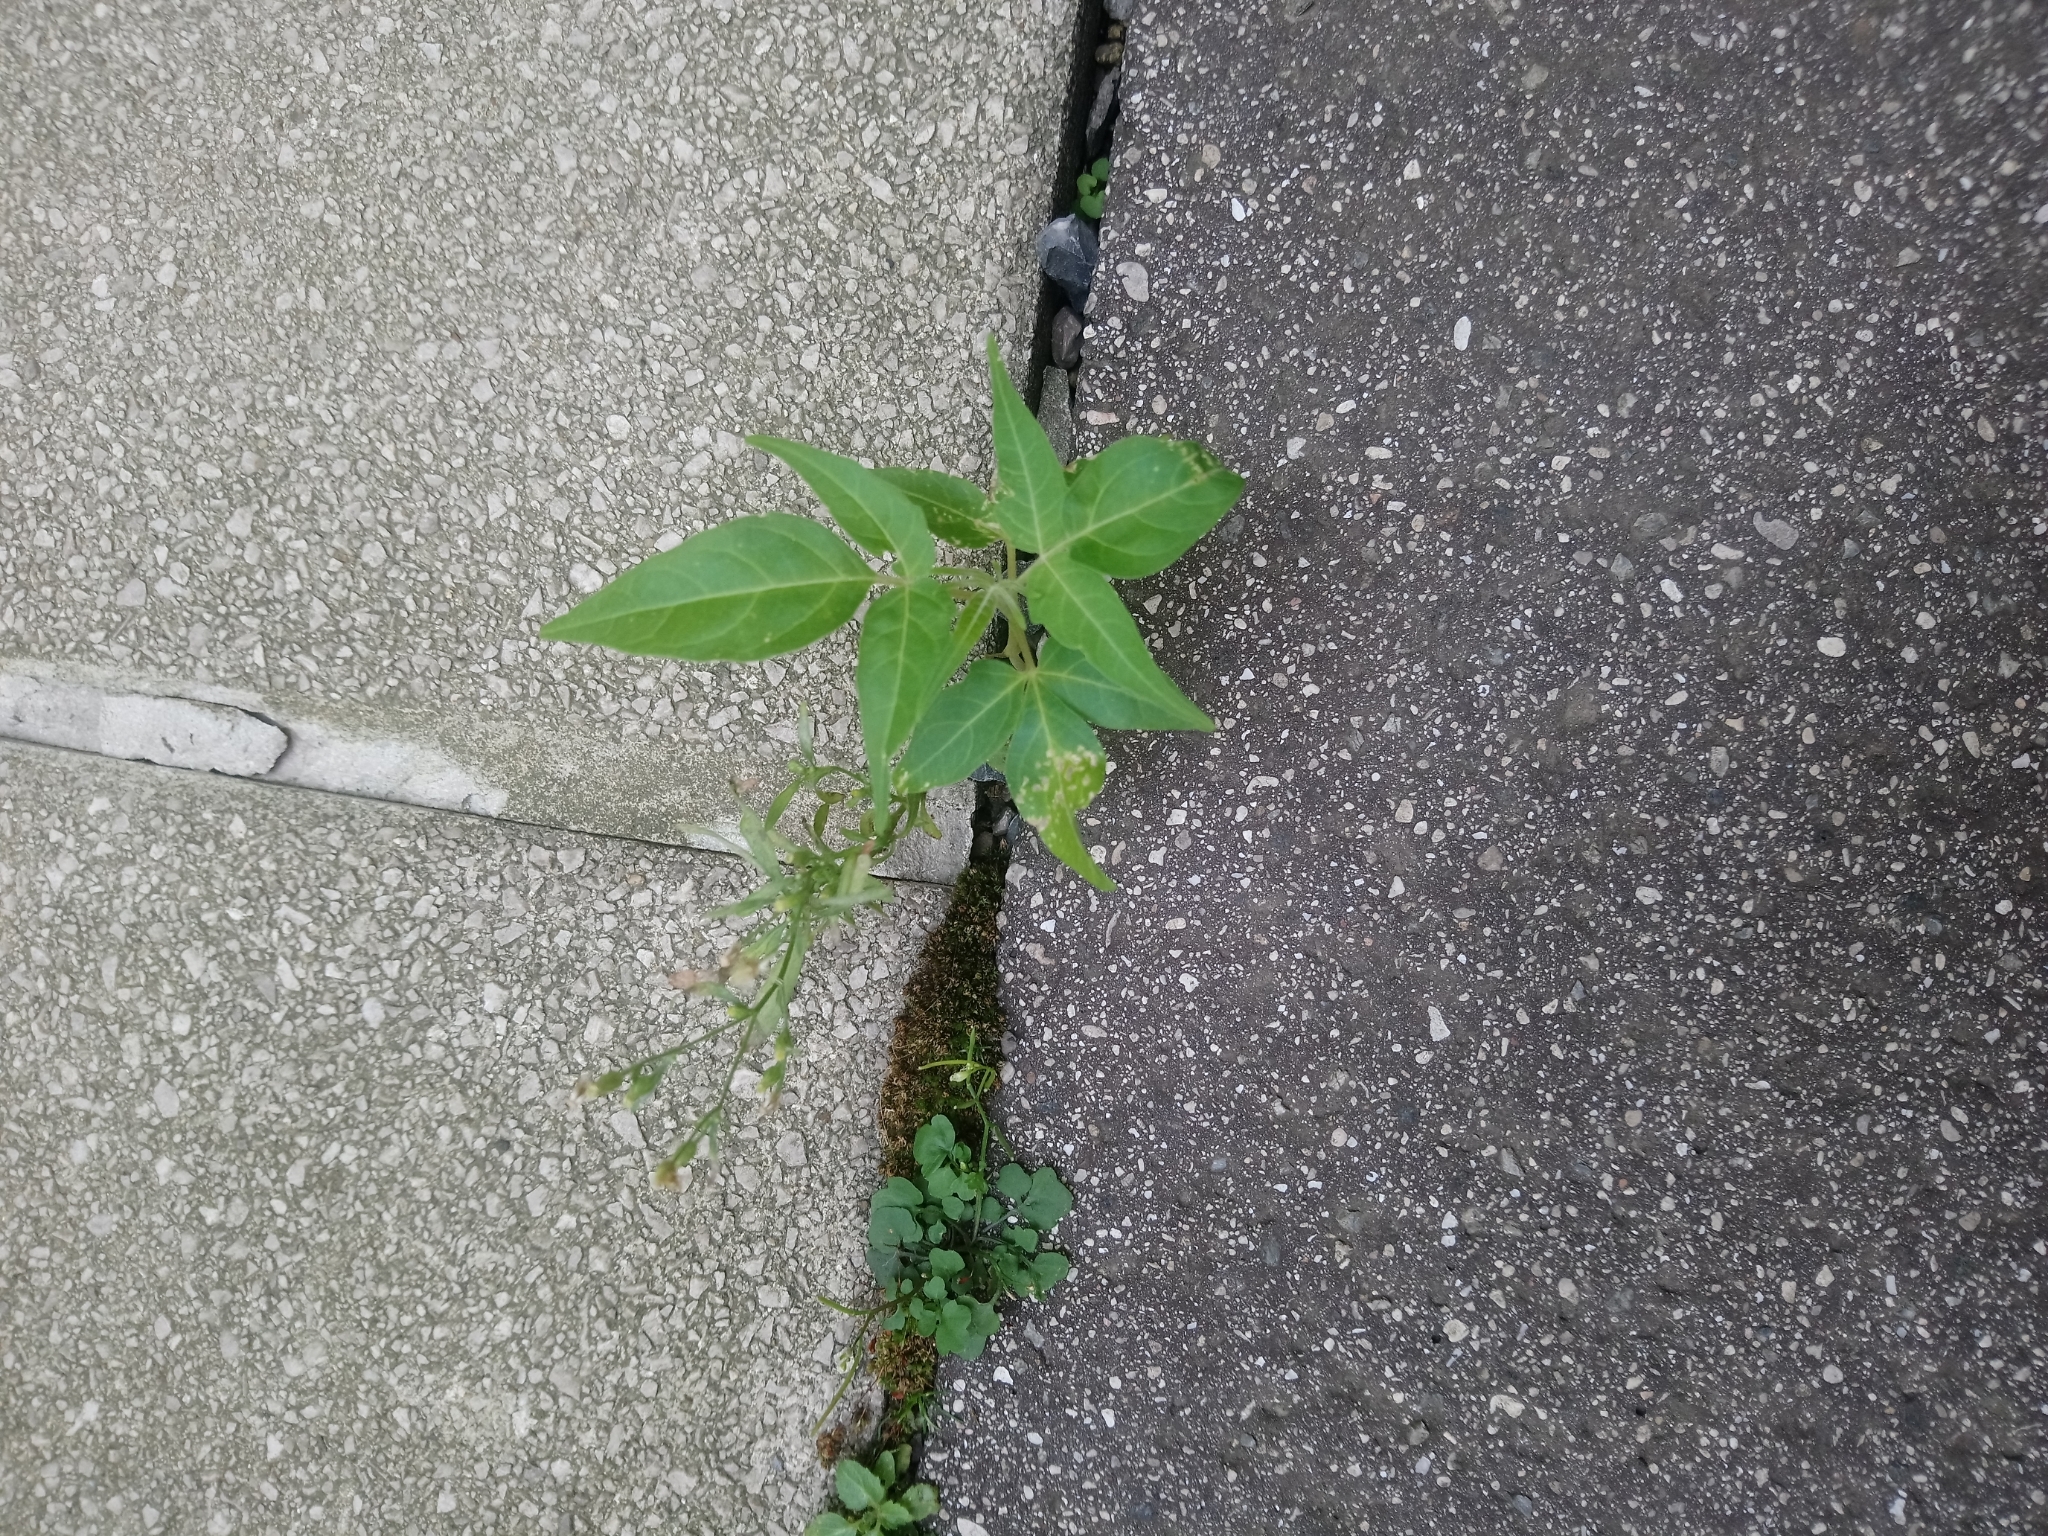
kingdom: Plantae
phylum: Tracheophyta
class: Magnoliopsida
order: Sapindales
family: Simaroubaceae
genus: Ailanthus
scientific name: Ailanthus altissima
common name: Tree-of-heaven
